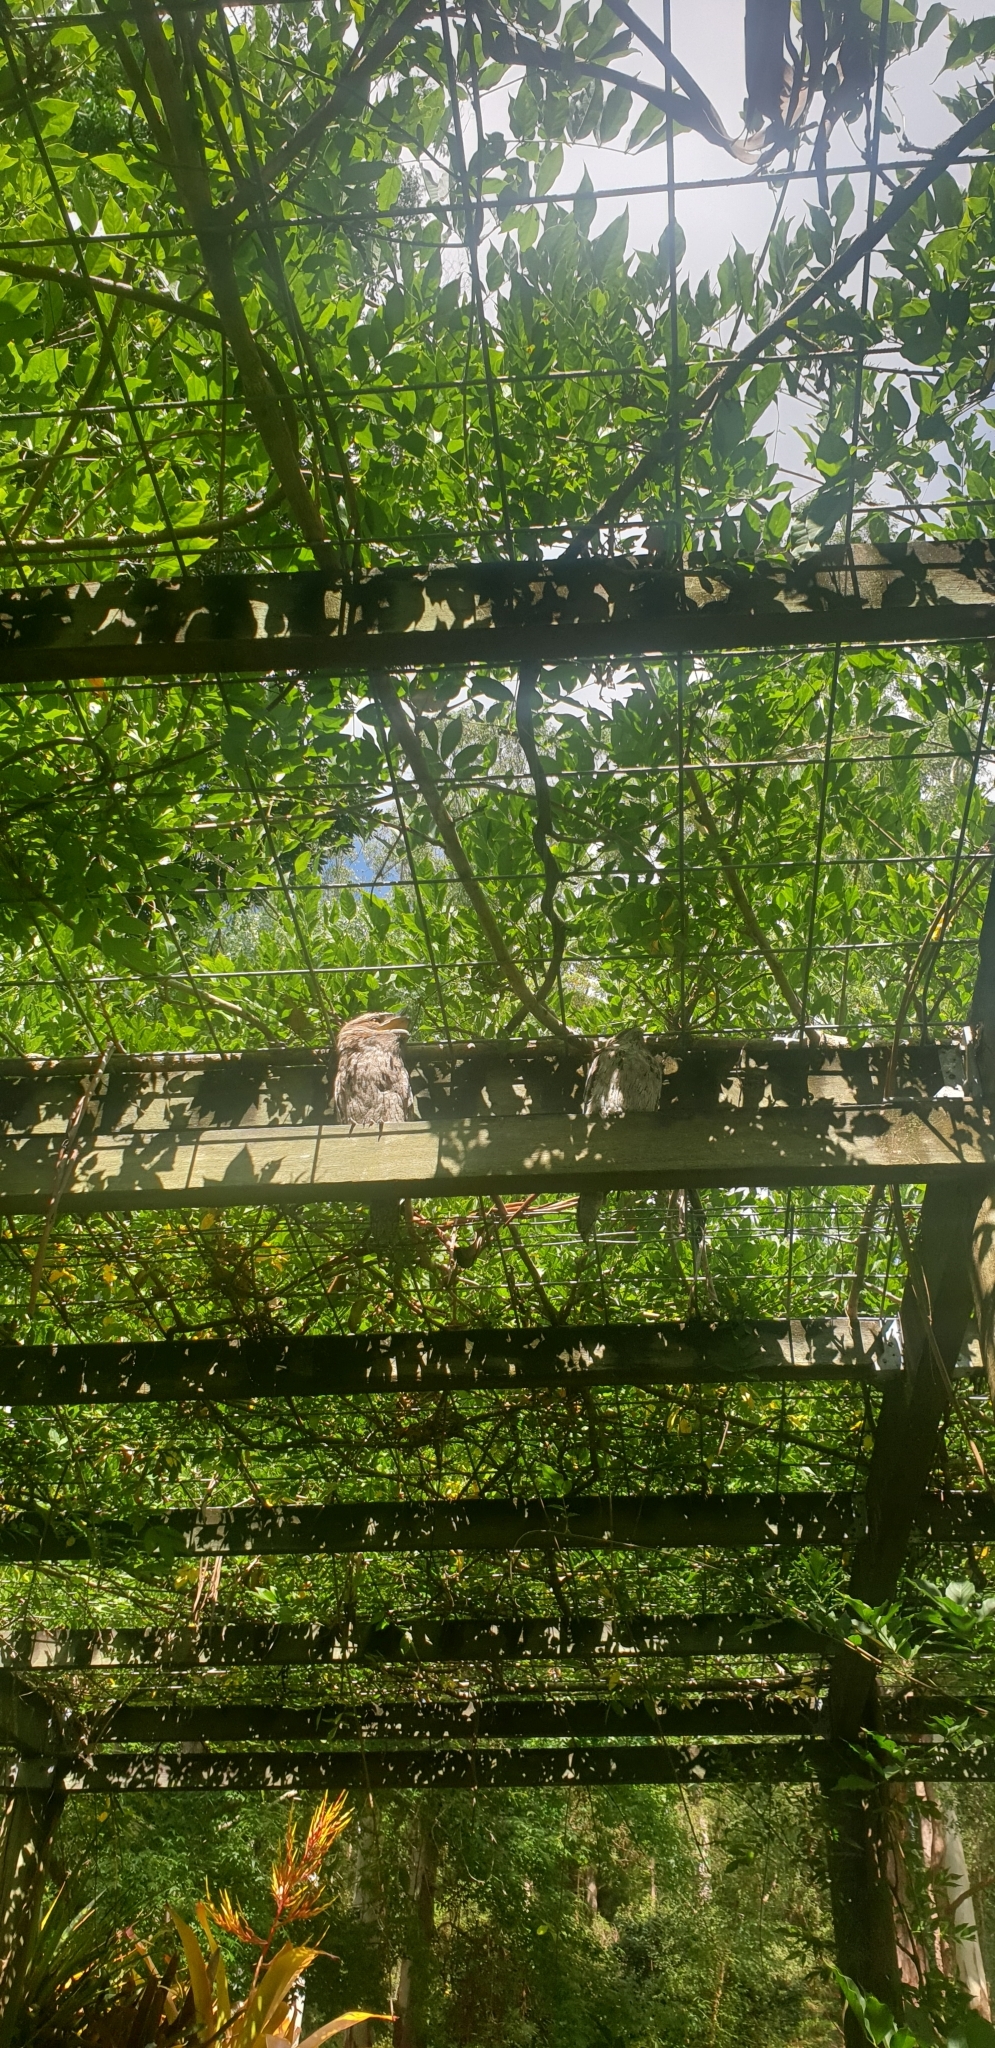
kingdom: Animalia
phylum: Chordata
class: Aves
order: Caprimulgiformes
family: Podargidae
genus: Podargus
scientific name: Podargus strigoides
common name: Tawny frogmouth
